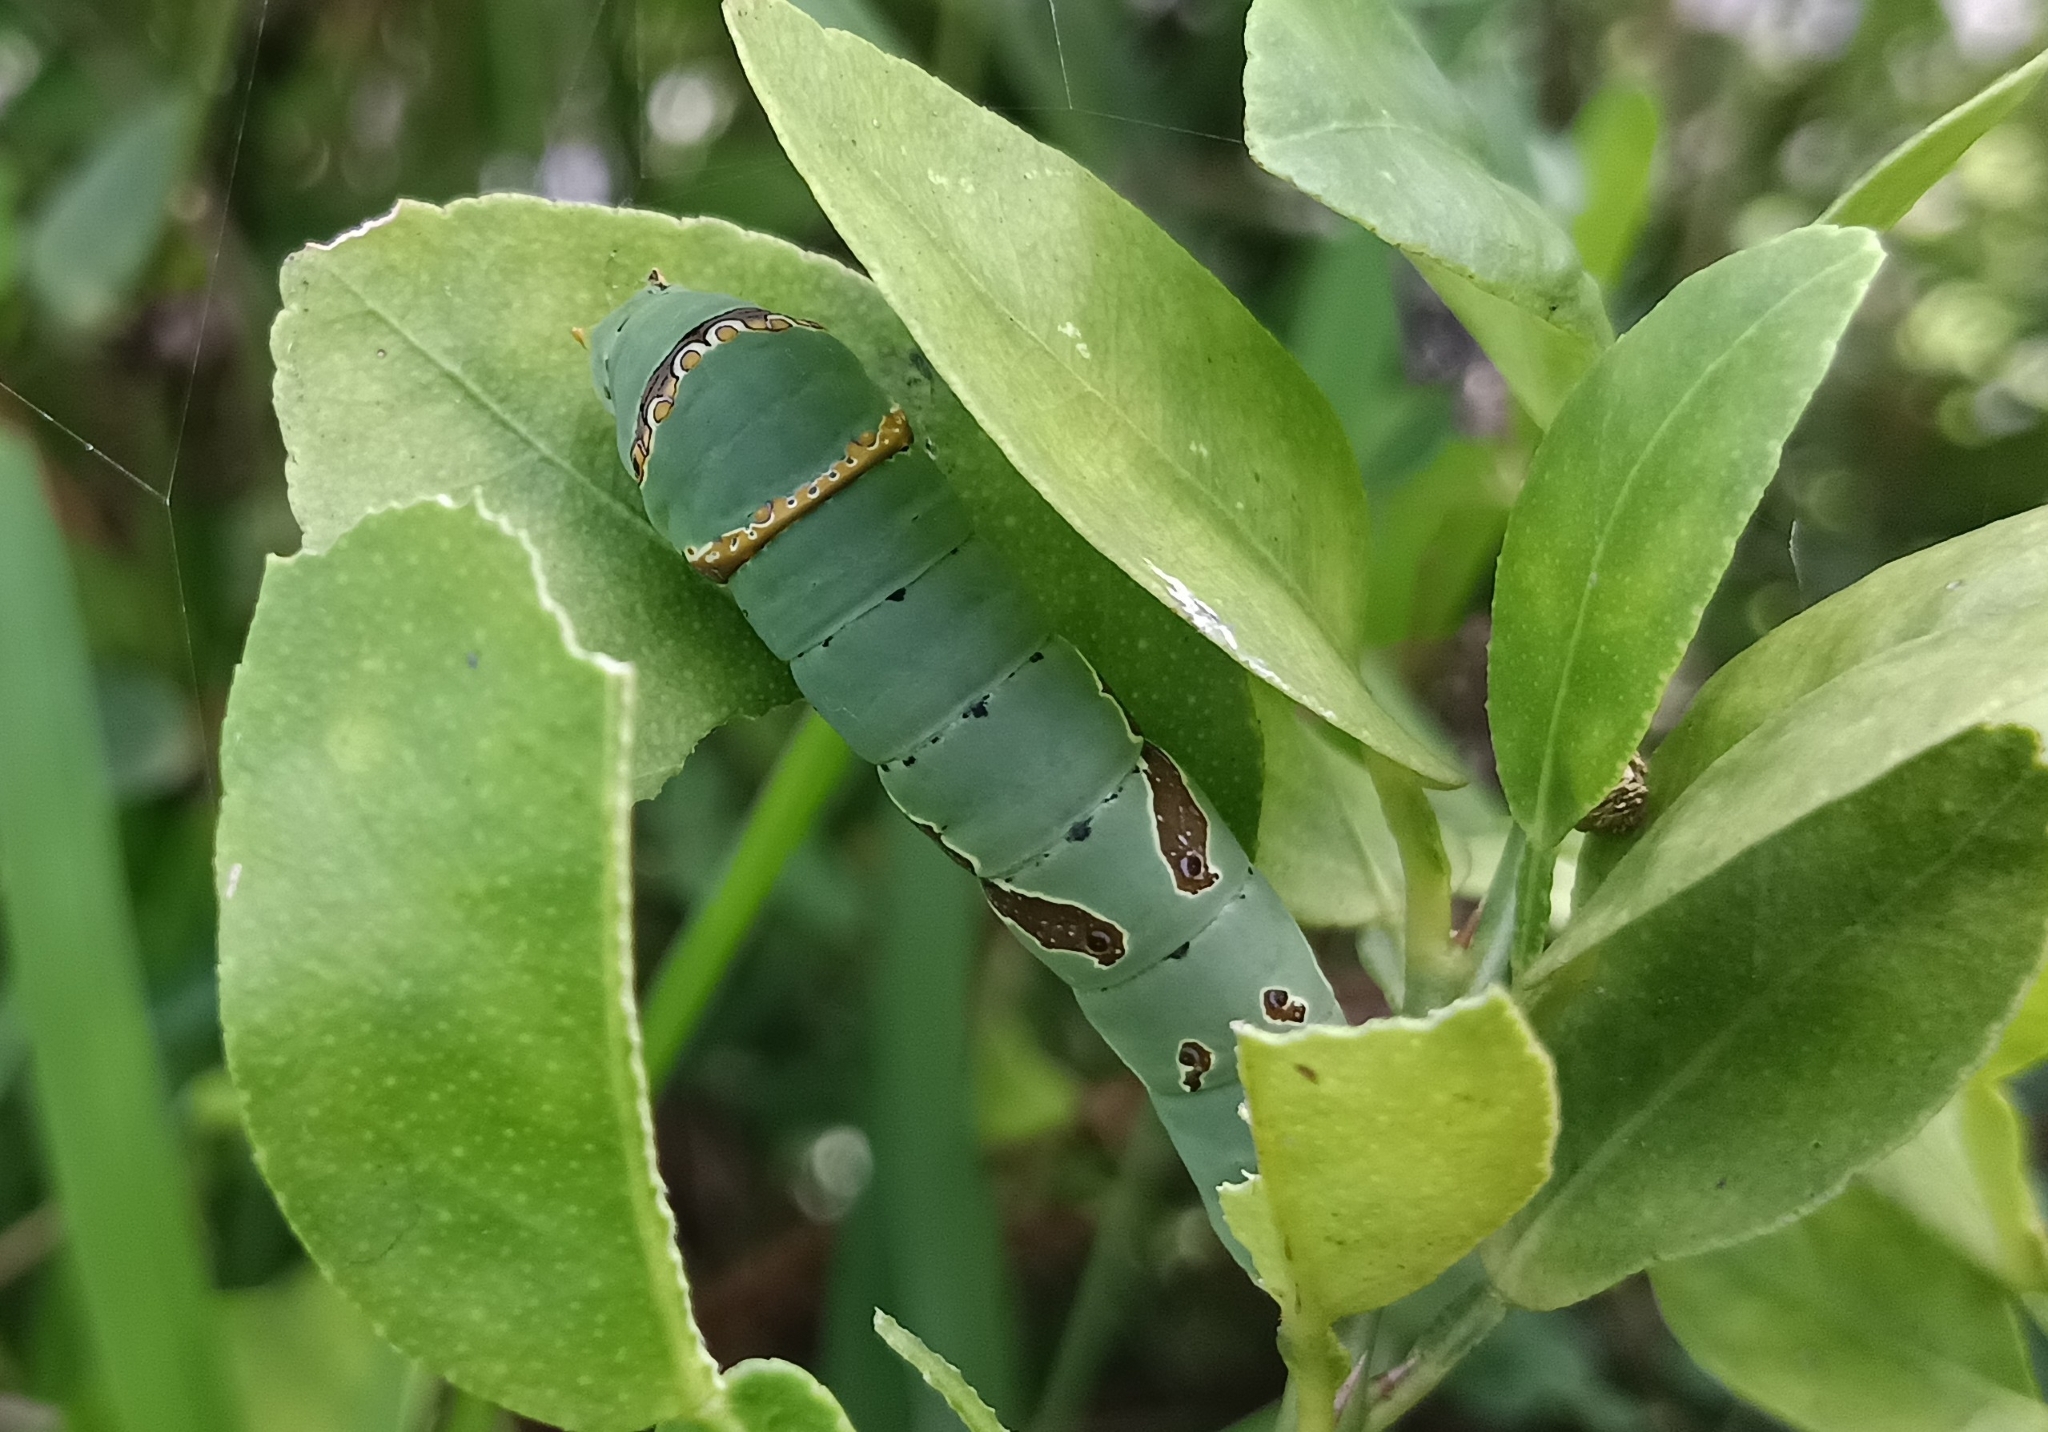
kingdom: Animalia
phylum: Arthropoda
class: Insecta
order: Lepidoptera
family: Papilionidae
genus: Papilio
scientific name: Papilio demoleus
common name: Lime butterfly
